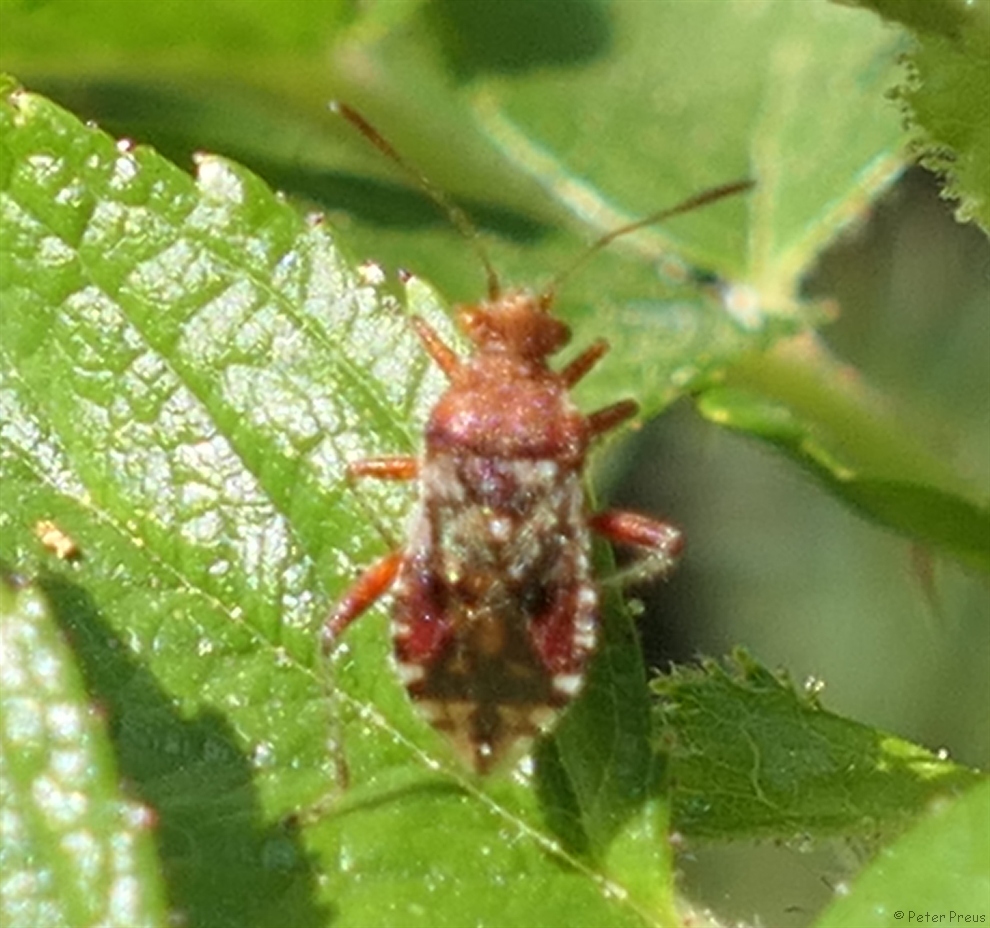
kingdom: Animalia
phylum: Arthropoda
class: Insecta
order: Hemiptera
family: Rhopalidae
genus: Rhopalus
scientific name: Rhopalus subrufus
